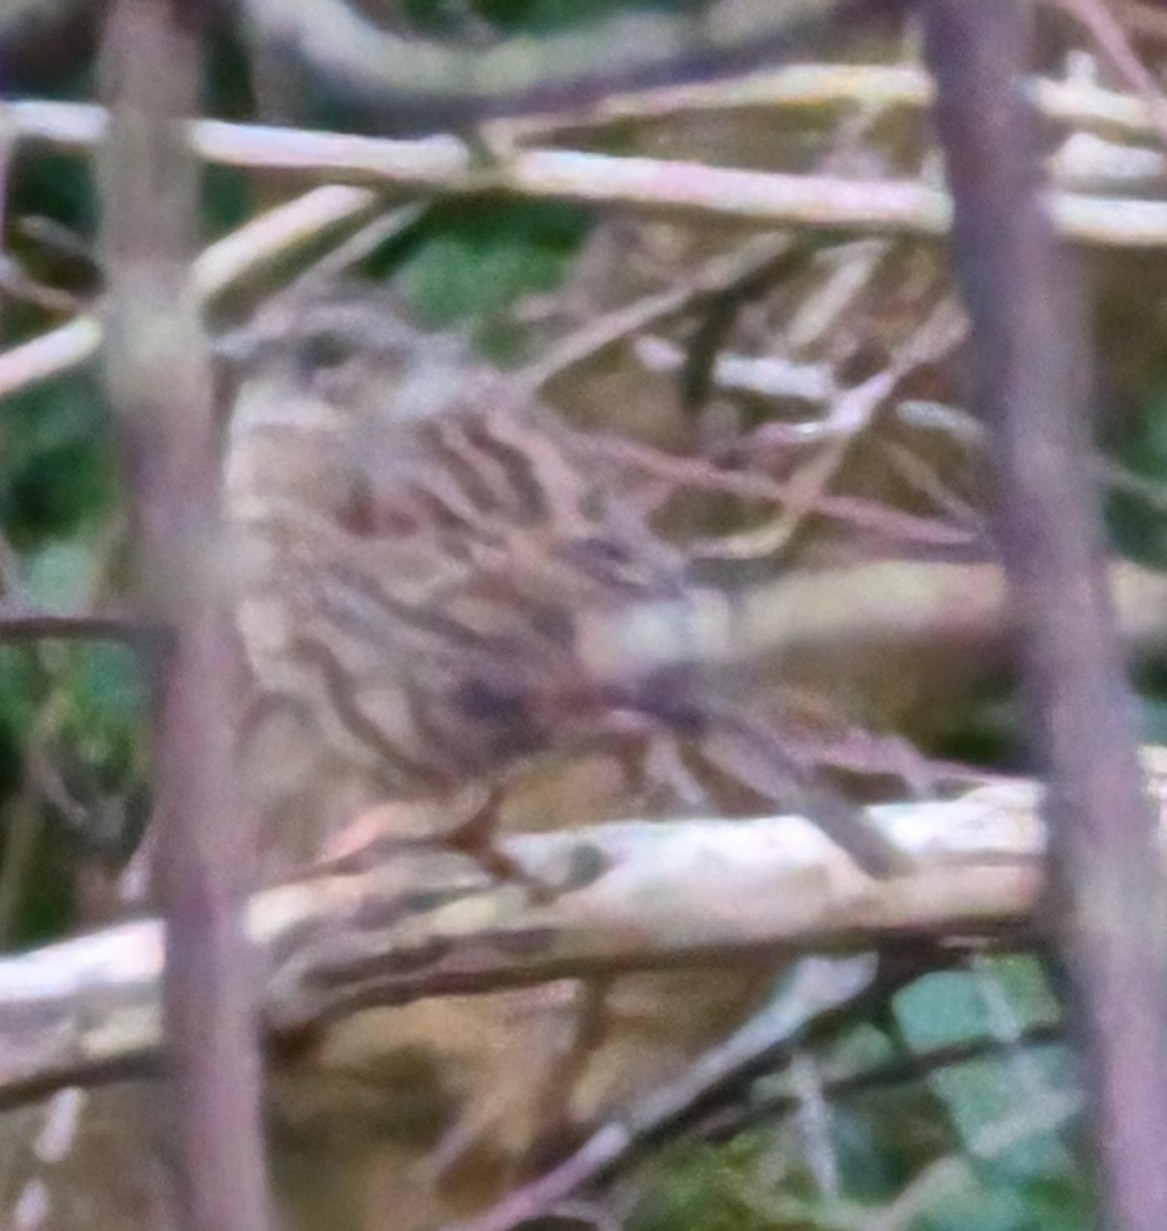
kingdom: Animalia
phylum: Chordata
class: Aves
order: Passeriformes
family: Prunellidae
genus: Prunella
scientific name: Prunella modularis
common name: Dunnock
